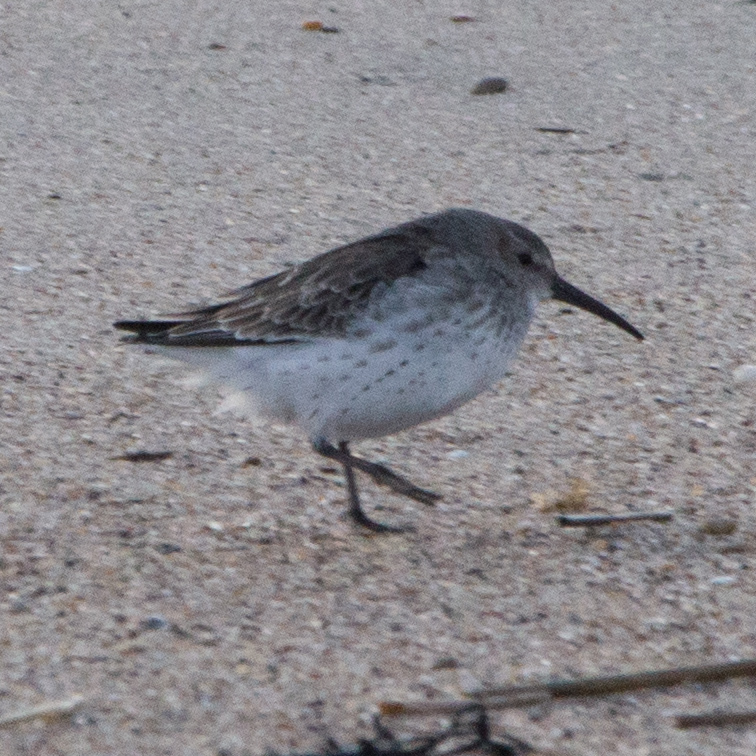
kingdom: Animalia
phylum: Chordata
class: Aves
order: Charadriiformes
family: Scolopacidae
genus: Calidris
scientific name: Calidris alpina
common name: Dunlin
